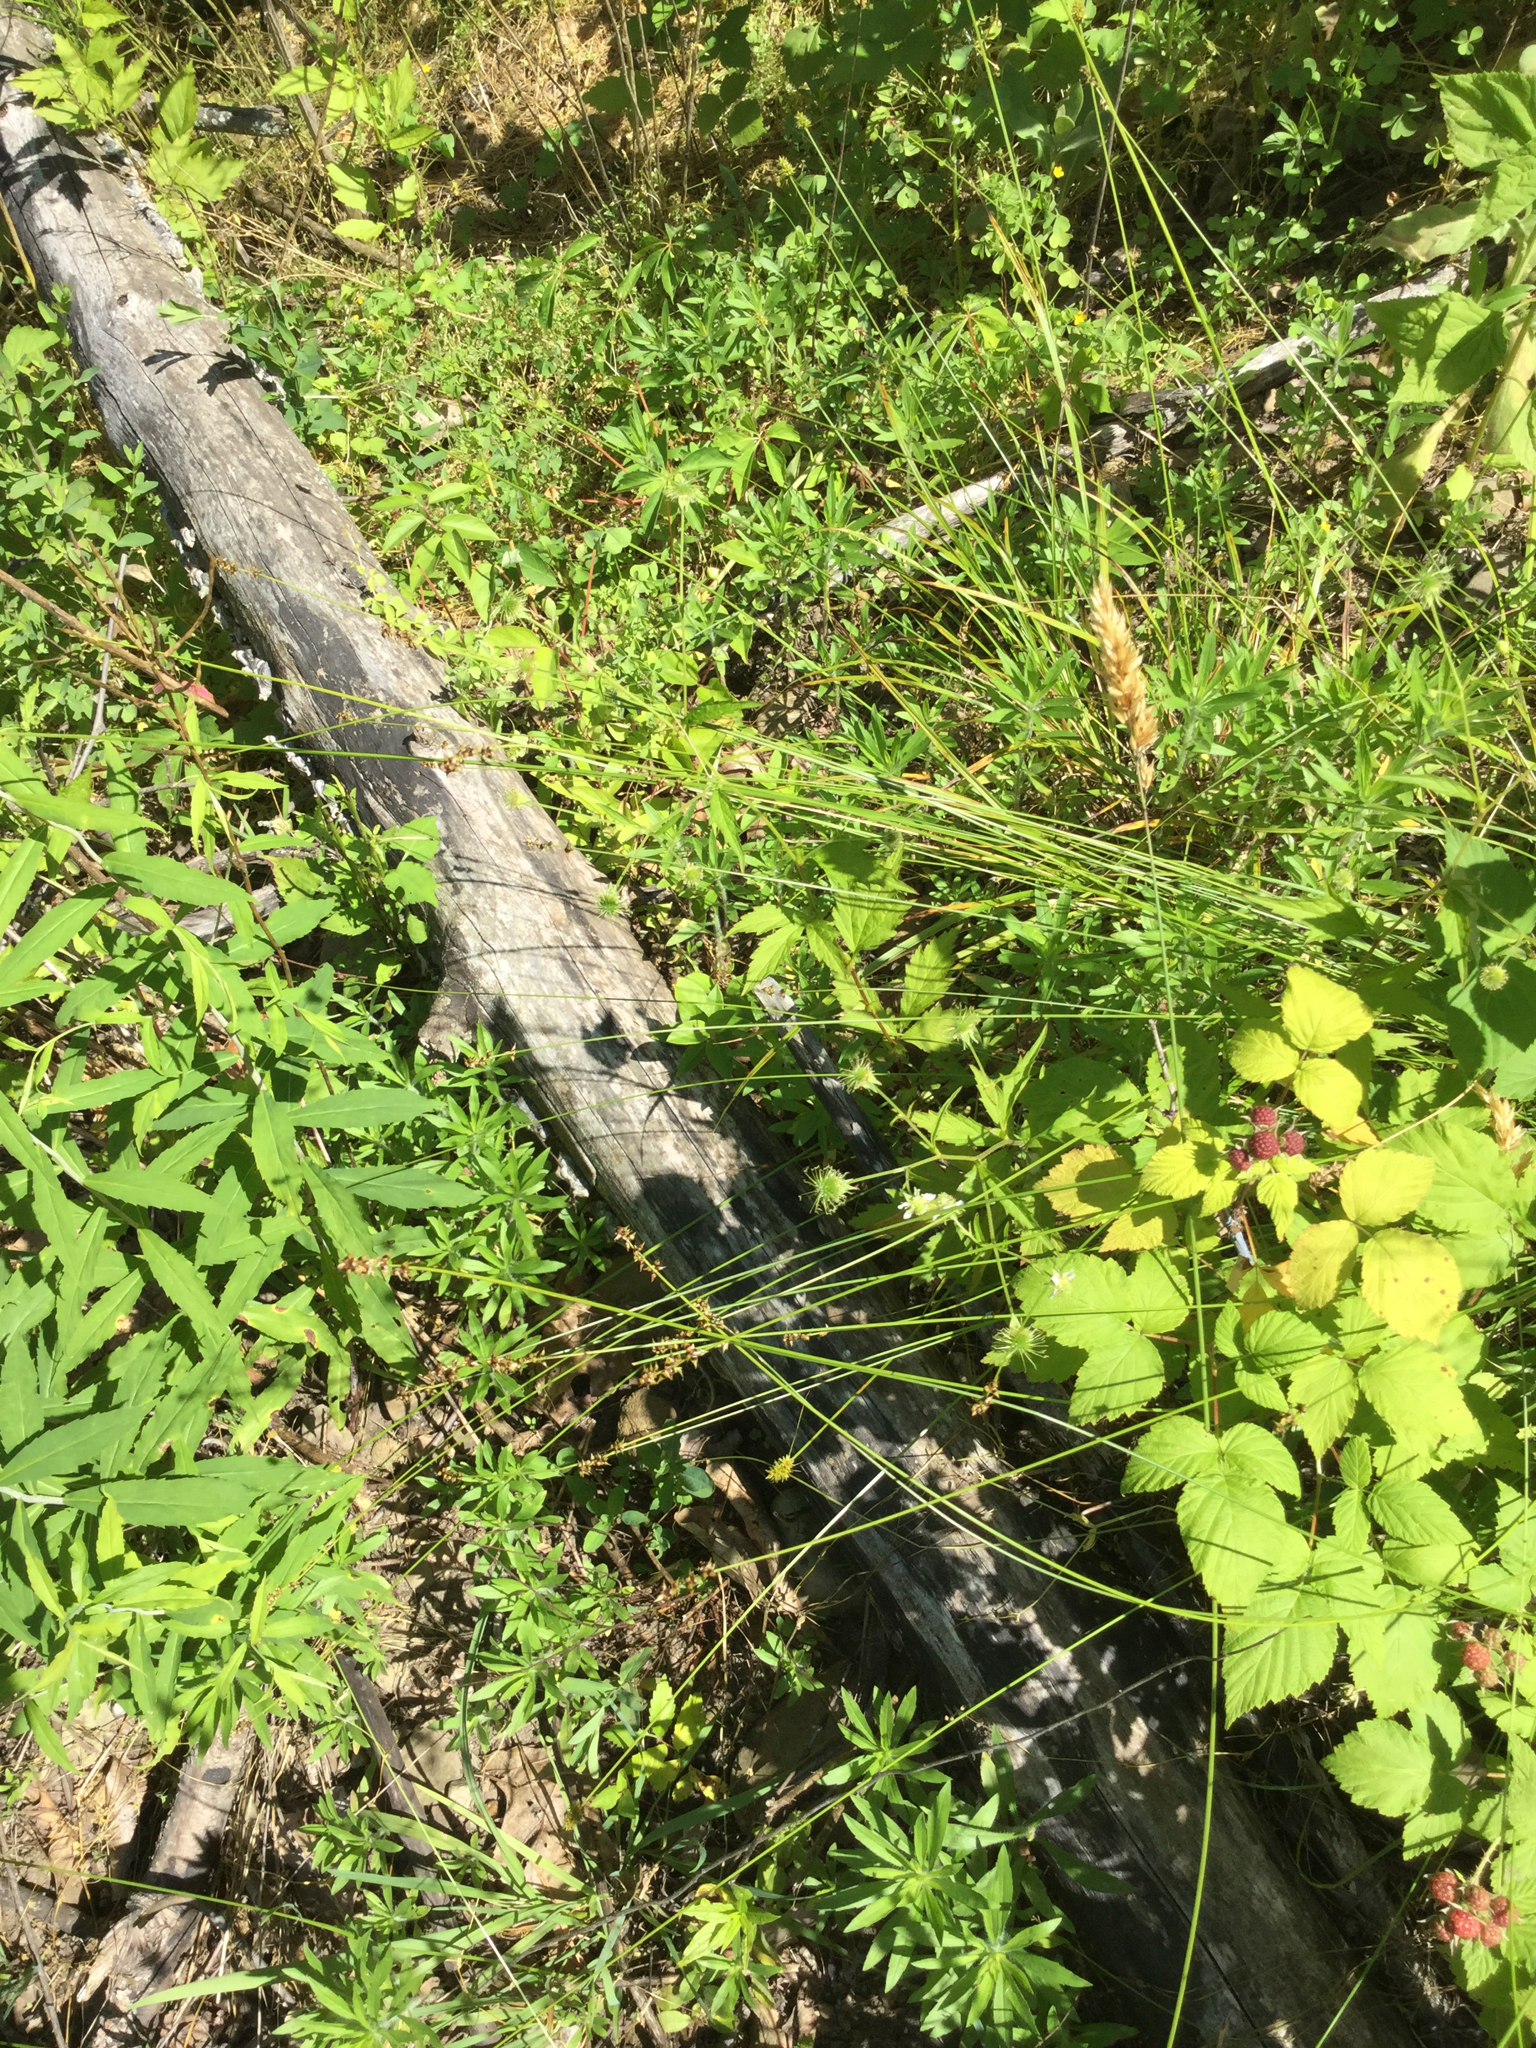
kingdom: Plantae
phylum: Tracheophyta
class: Liliopsida
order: Poales
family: Cyperaceae
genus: Carex
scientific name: Carex retroflexa
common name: Reflexed sedge
